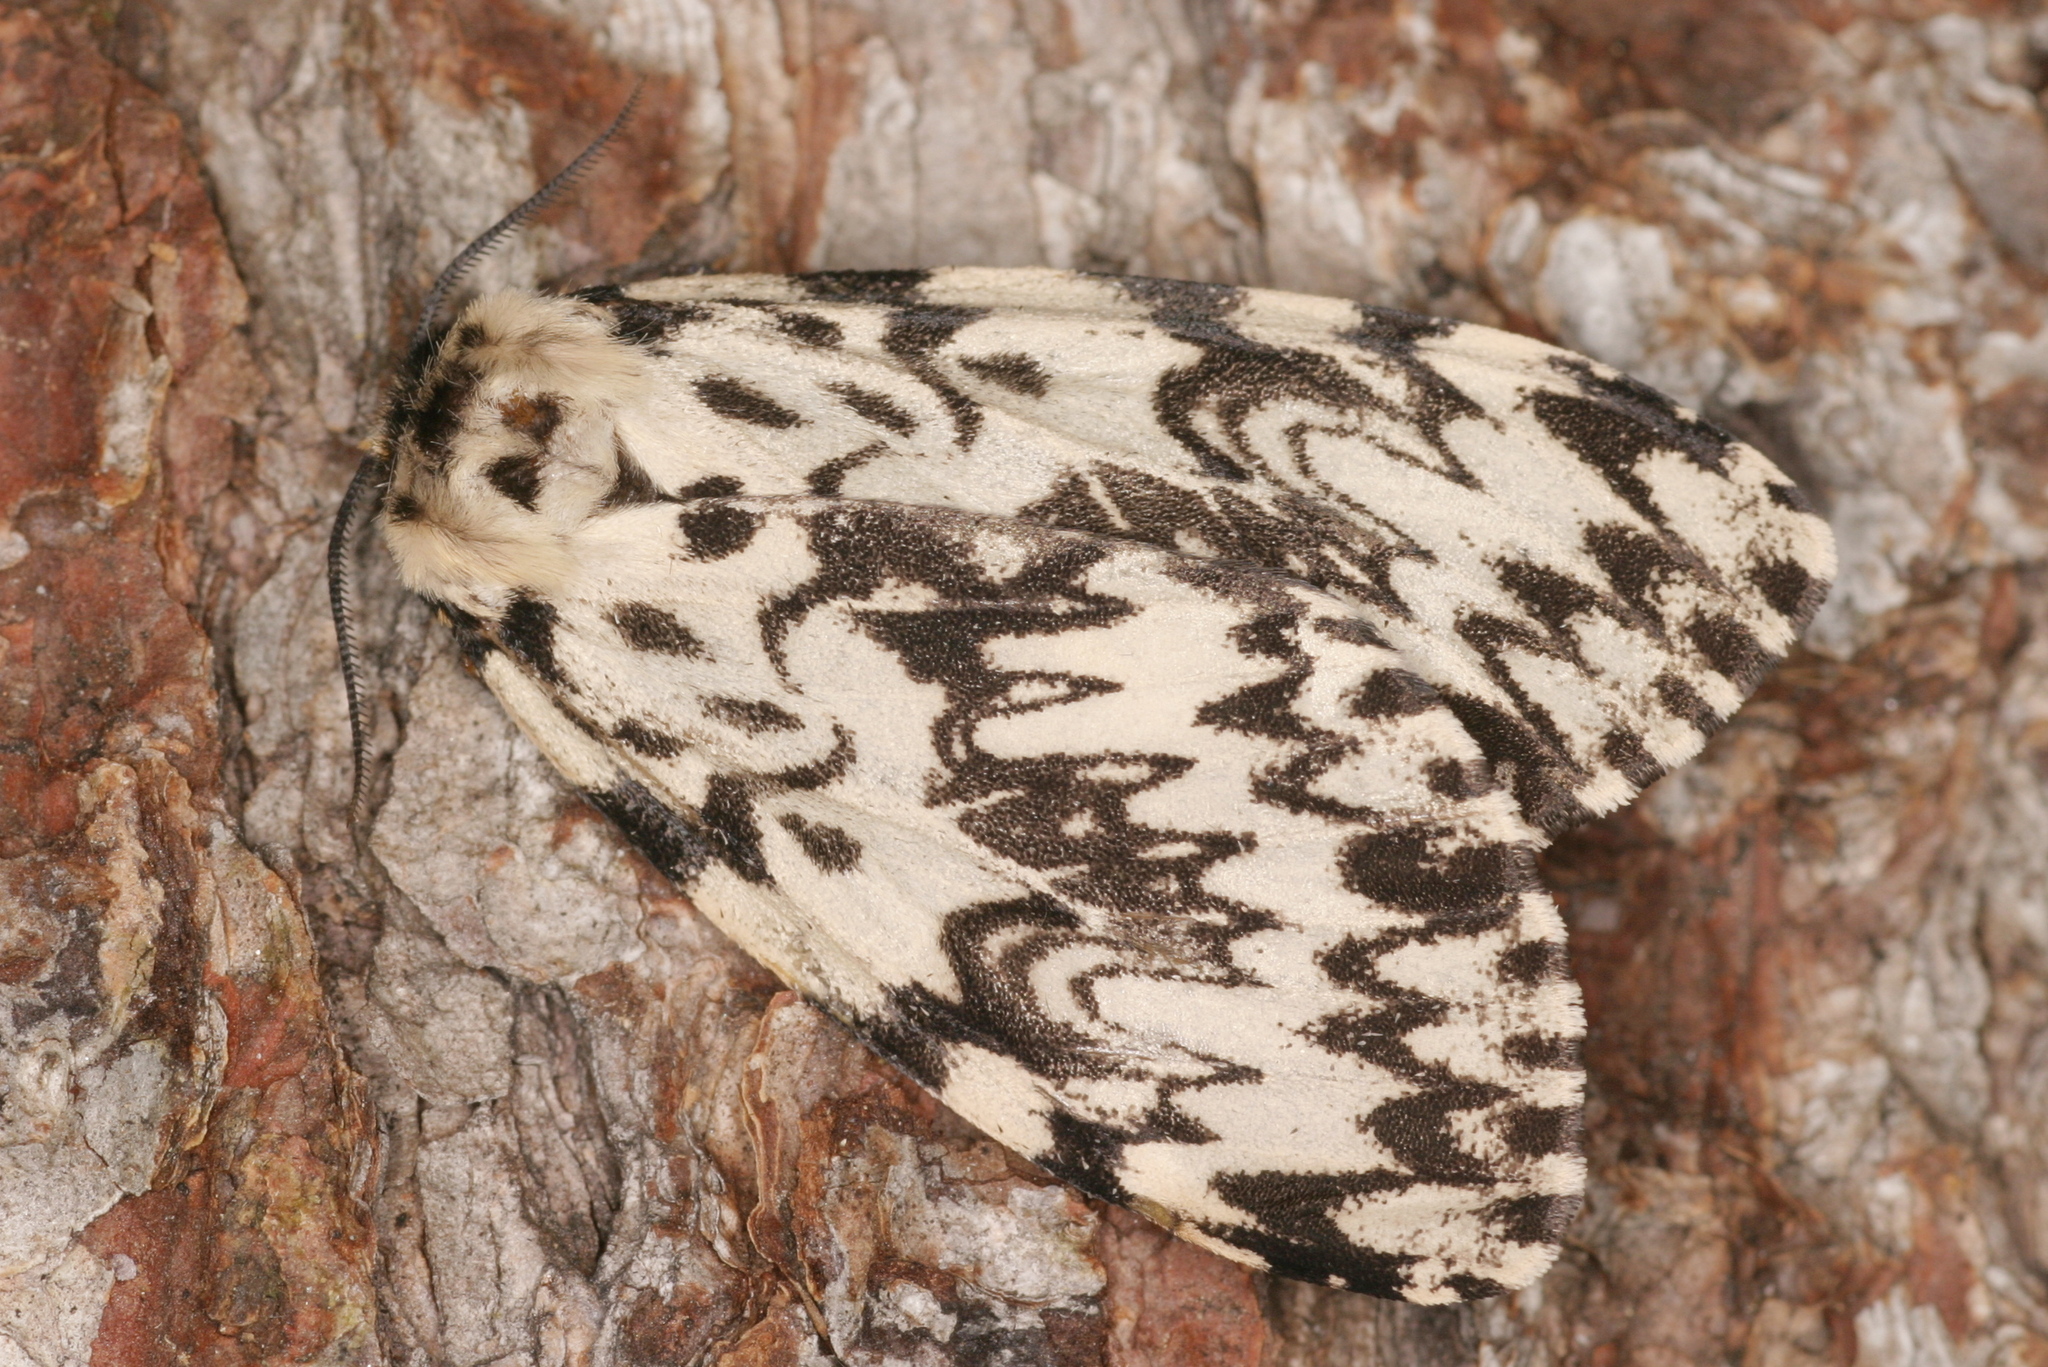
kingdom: Animalia
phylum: Arthropoda
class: Insecta
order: Lepidoptera
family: Erebidae
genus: Lymantria
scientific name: Lymantria monacha
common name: Black arches
